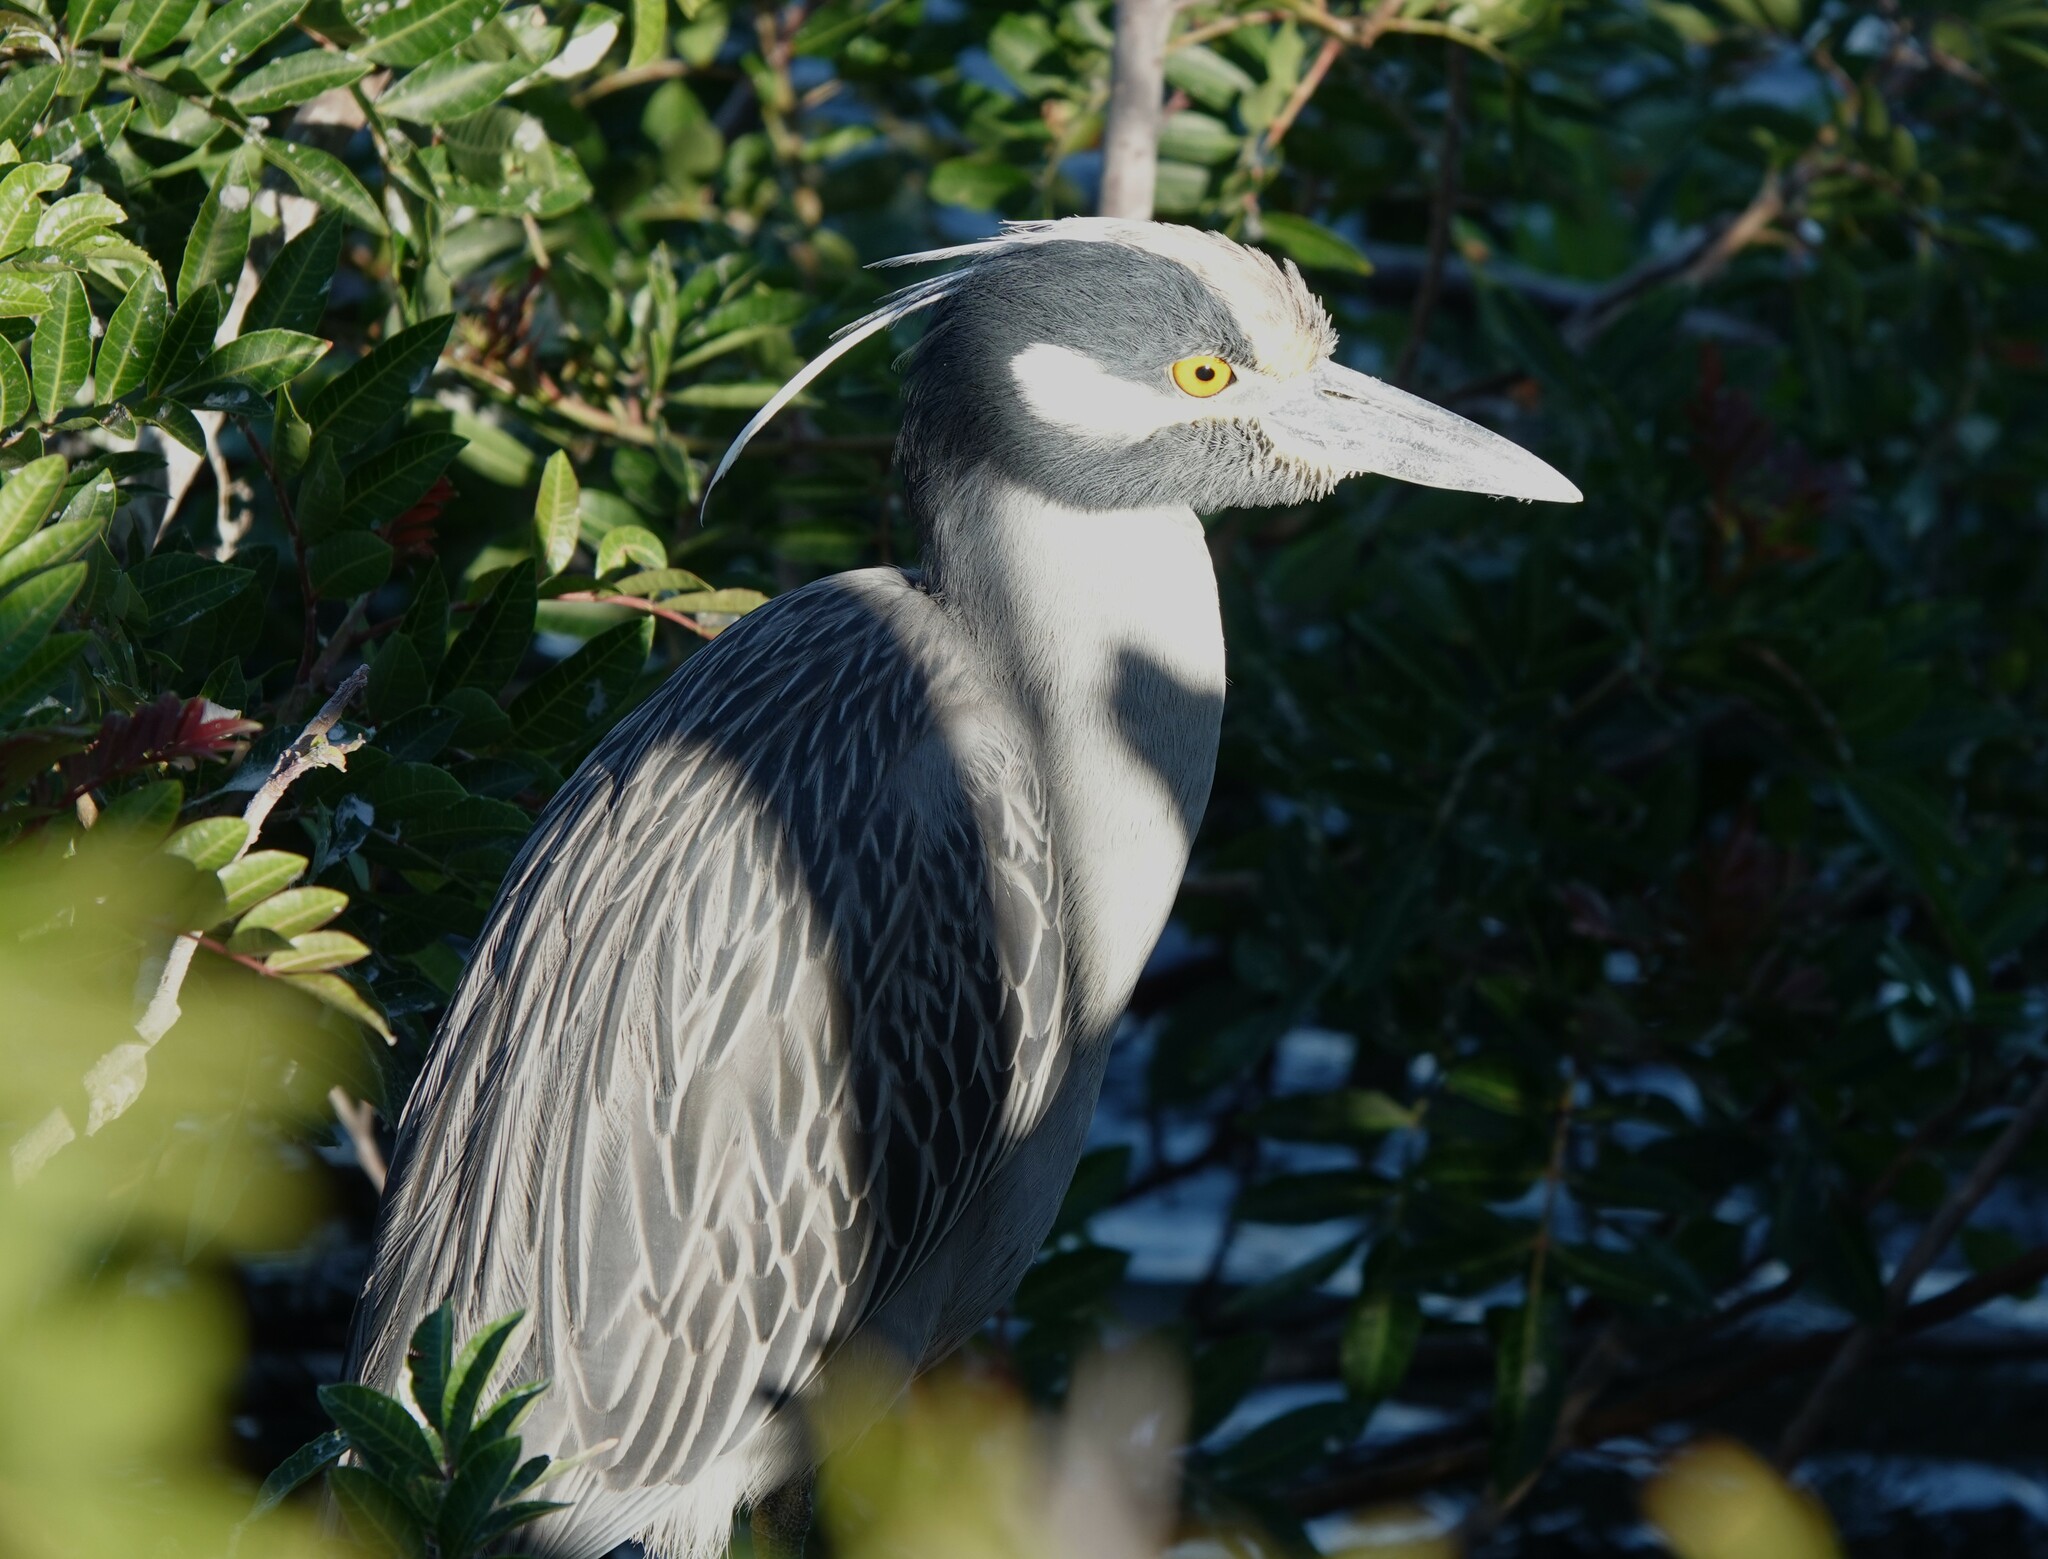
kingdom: Animalia
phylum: Chordata
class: Aves
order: Pelecaniformes
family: Ardeidae
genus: Nyctanassa
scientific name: Nyctanassa violacea
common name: Yellow-crowned night heron
